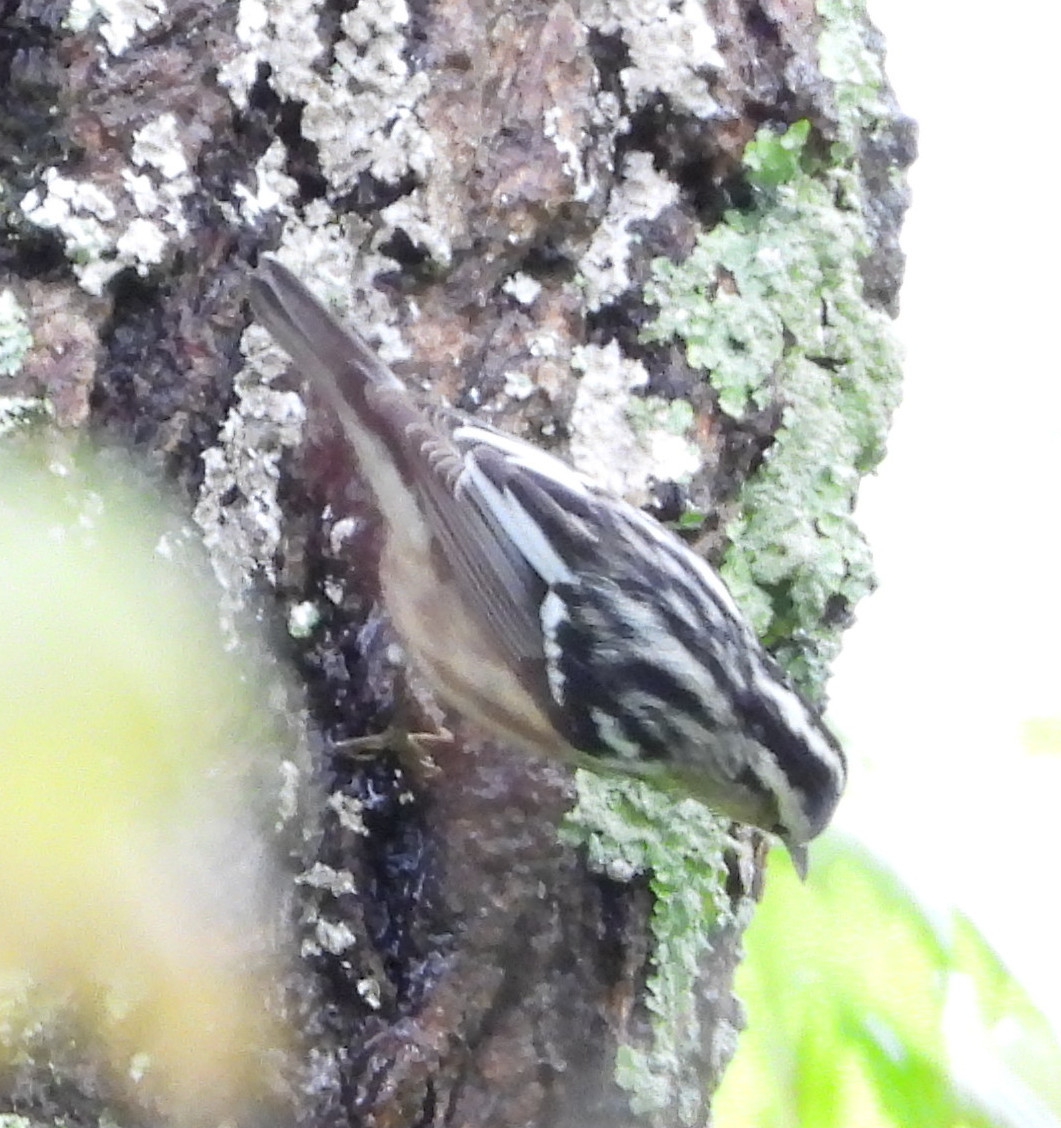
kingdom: Animalia
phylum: Chordata
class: Aves
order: Passeriformes
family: Parulidae
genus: Mniotilta
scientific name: Mniotilta varia
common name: Black-and-white warbler
